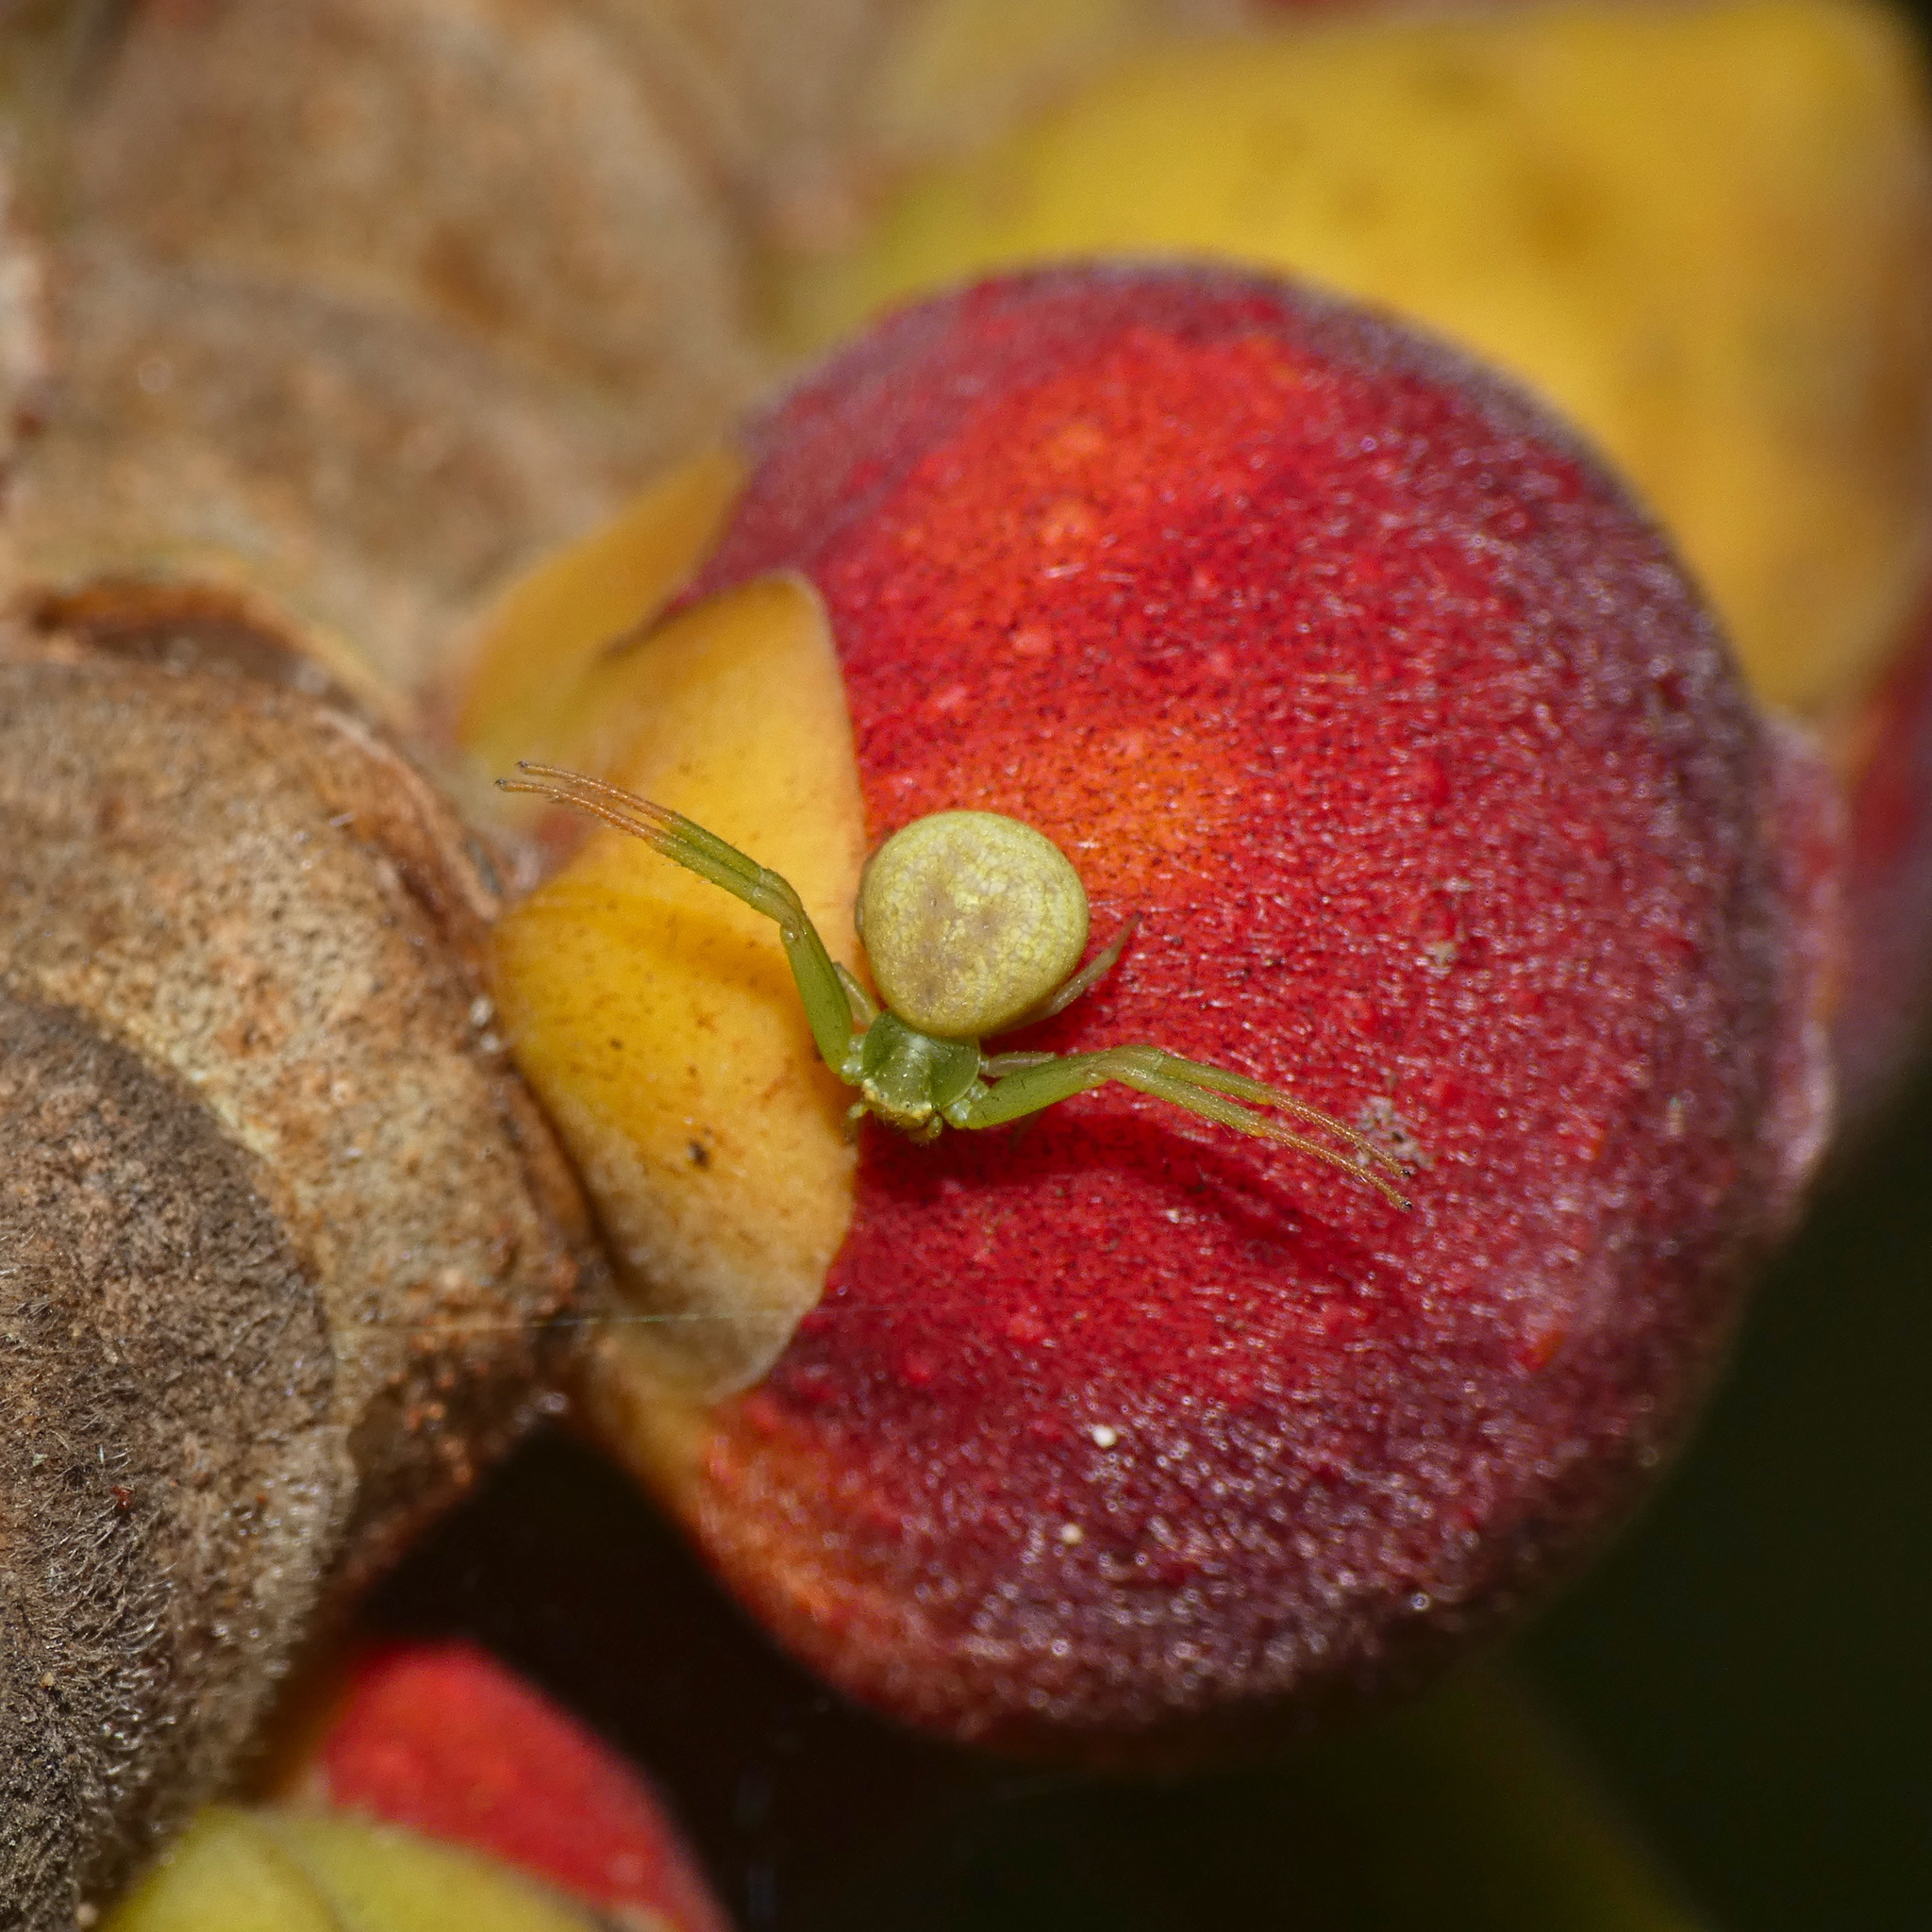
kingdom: Animalia
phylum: Arthropoda
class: Arachnida
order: Araneae
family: Thomisidae
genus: Misumenops
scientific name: Misumenops rubrodecoratus
